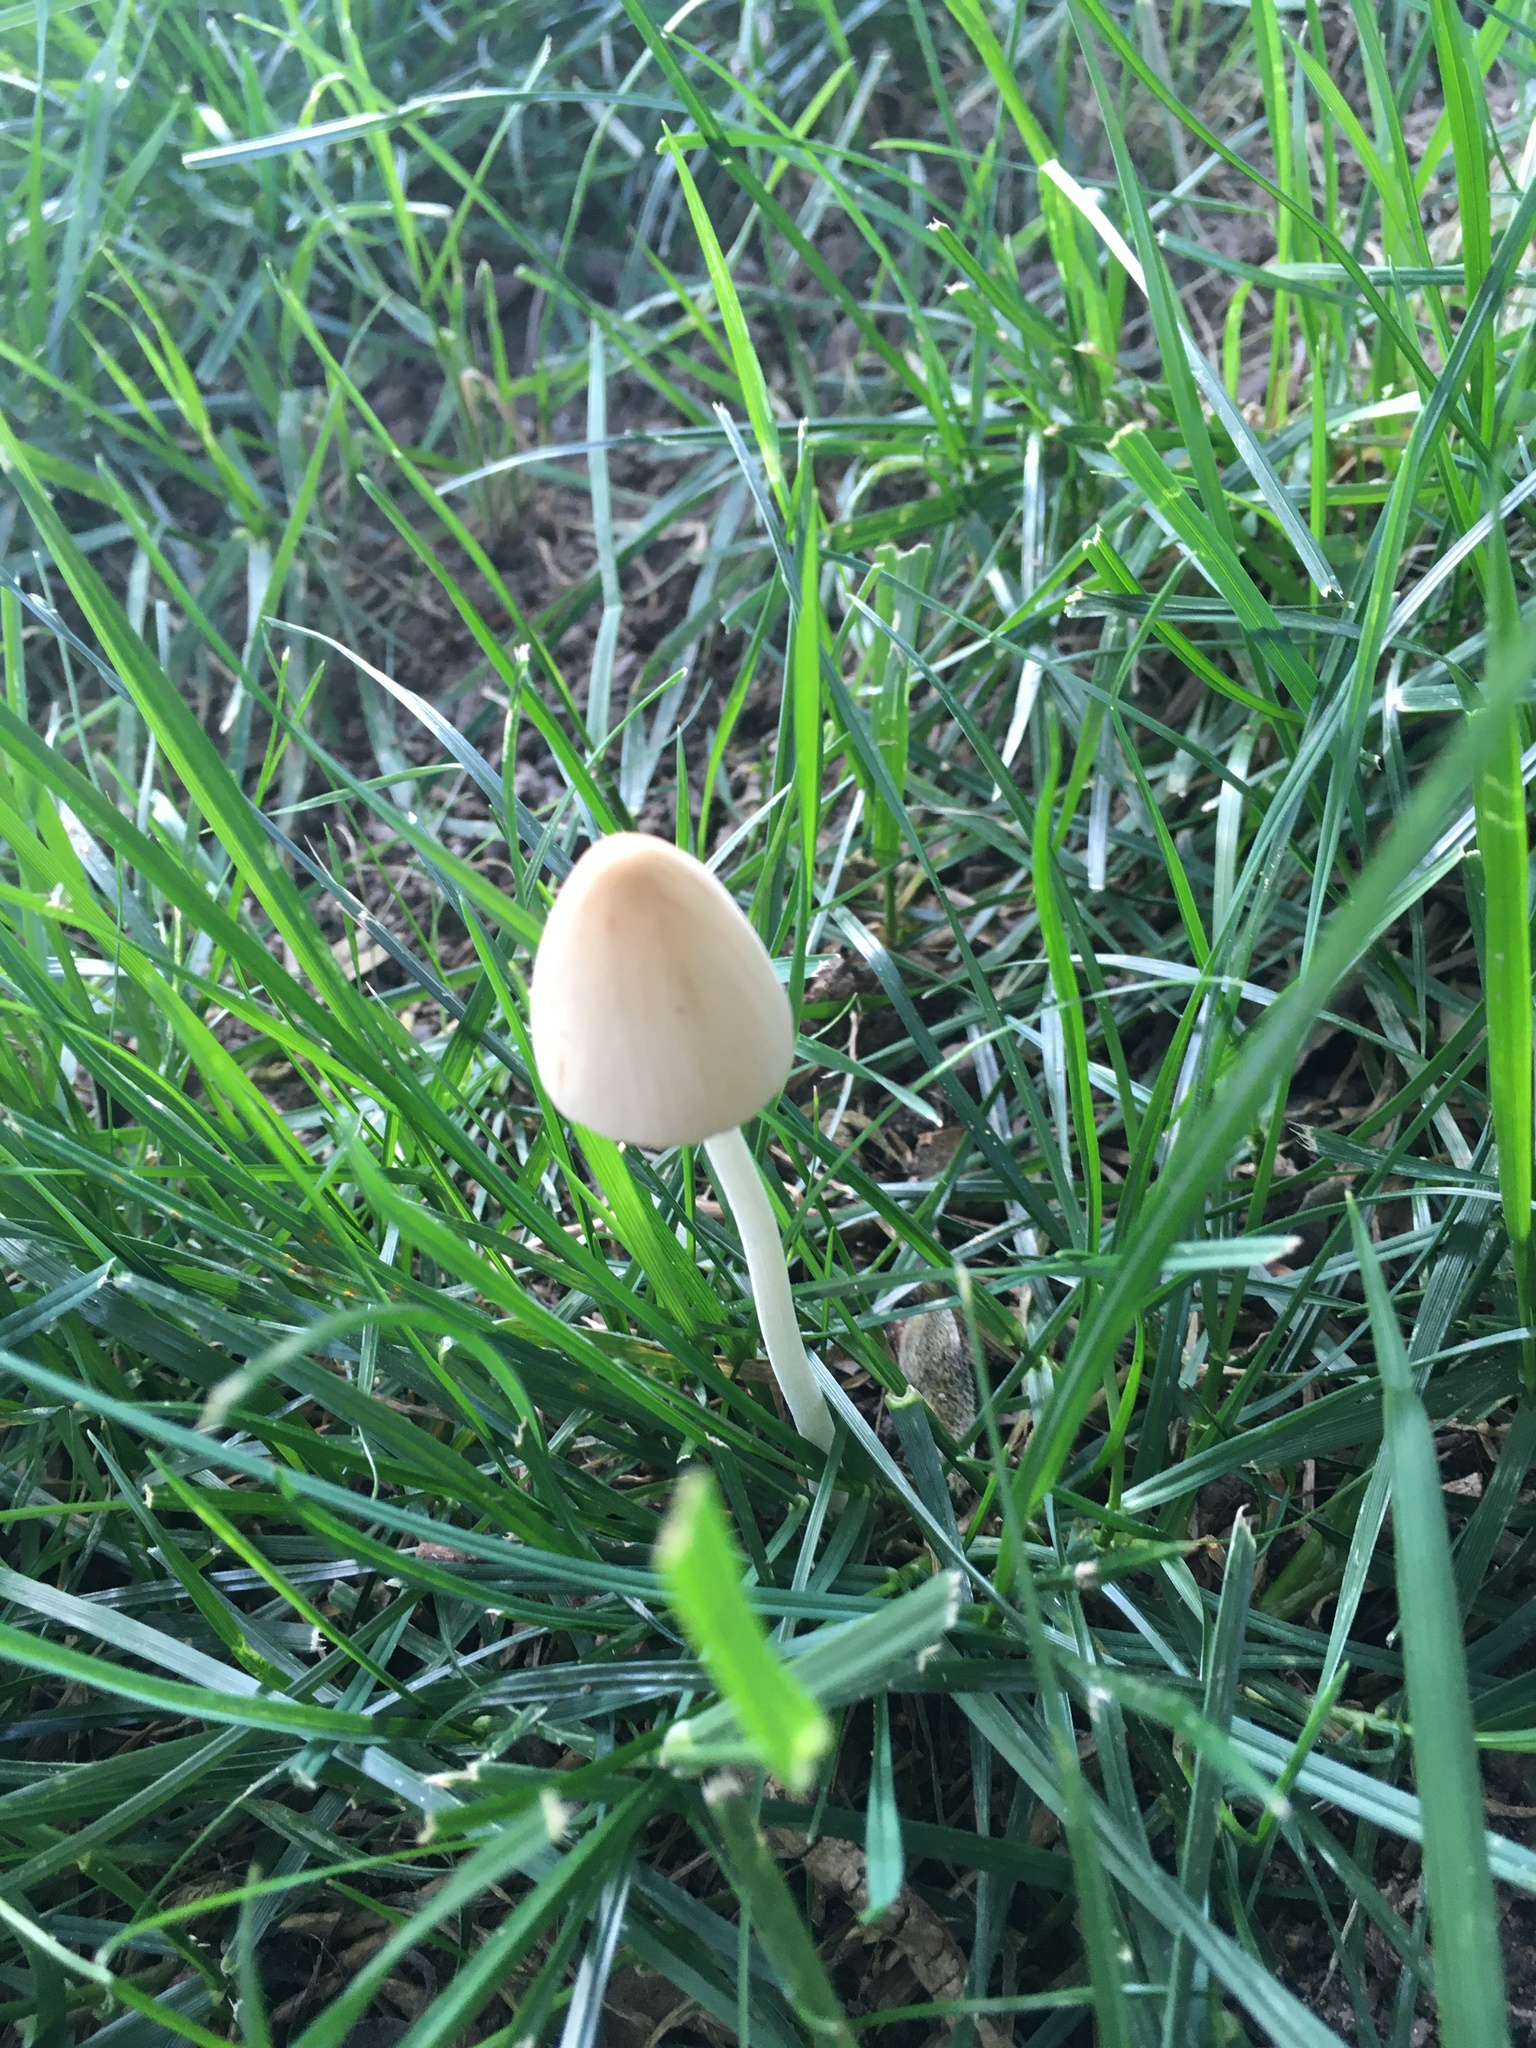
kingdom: Fungi
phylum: Basidiomycota
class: Agaricomycetes
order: Agaricales
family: Bolbitiaceae
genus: Conocybe
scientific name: Conocybe apala
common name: Milky conecap
